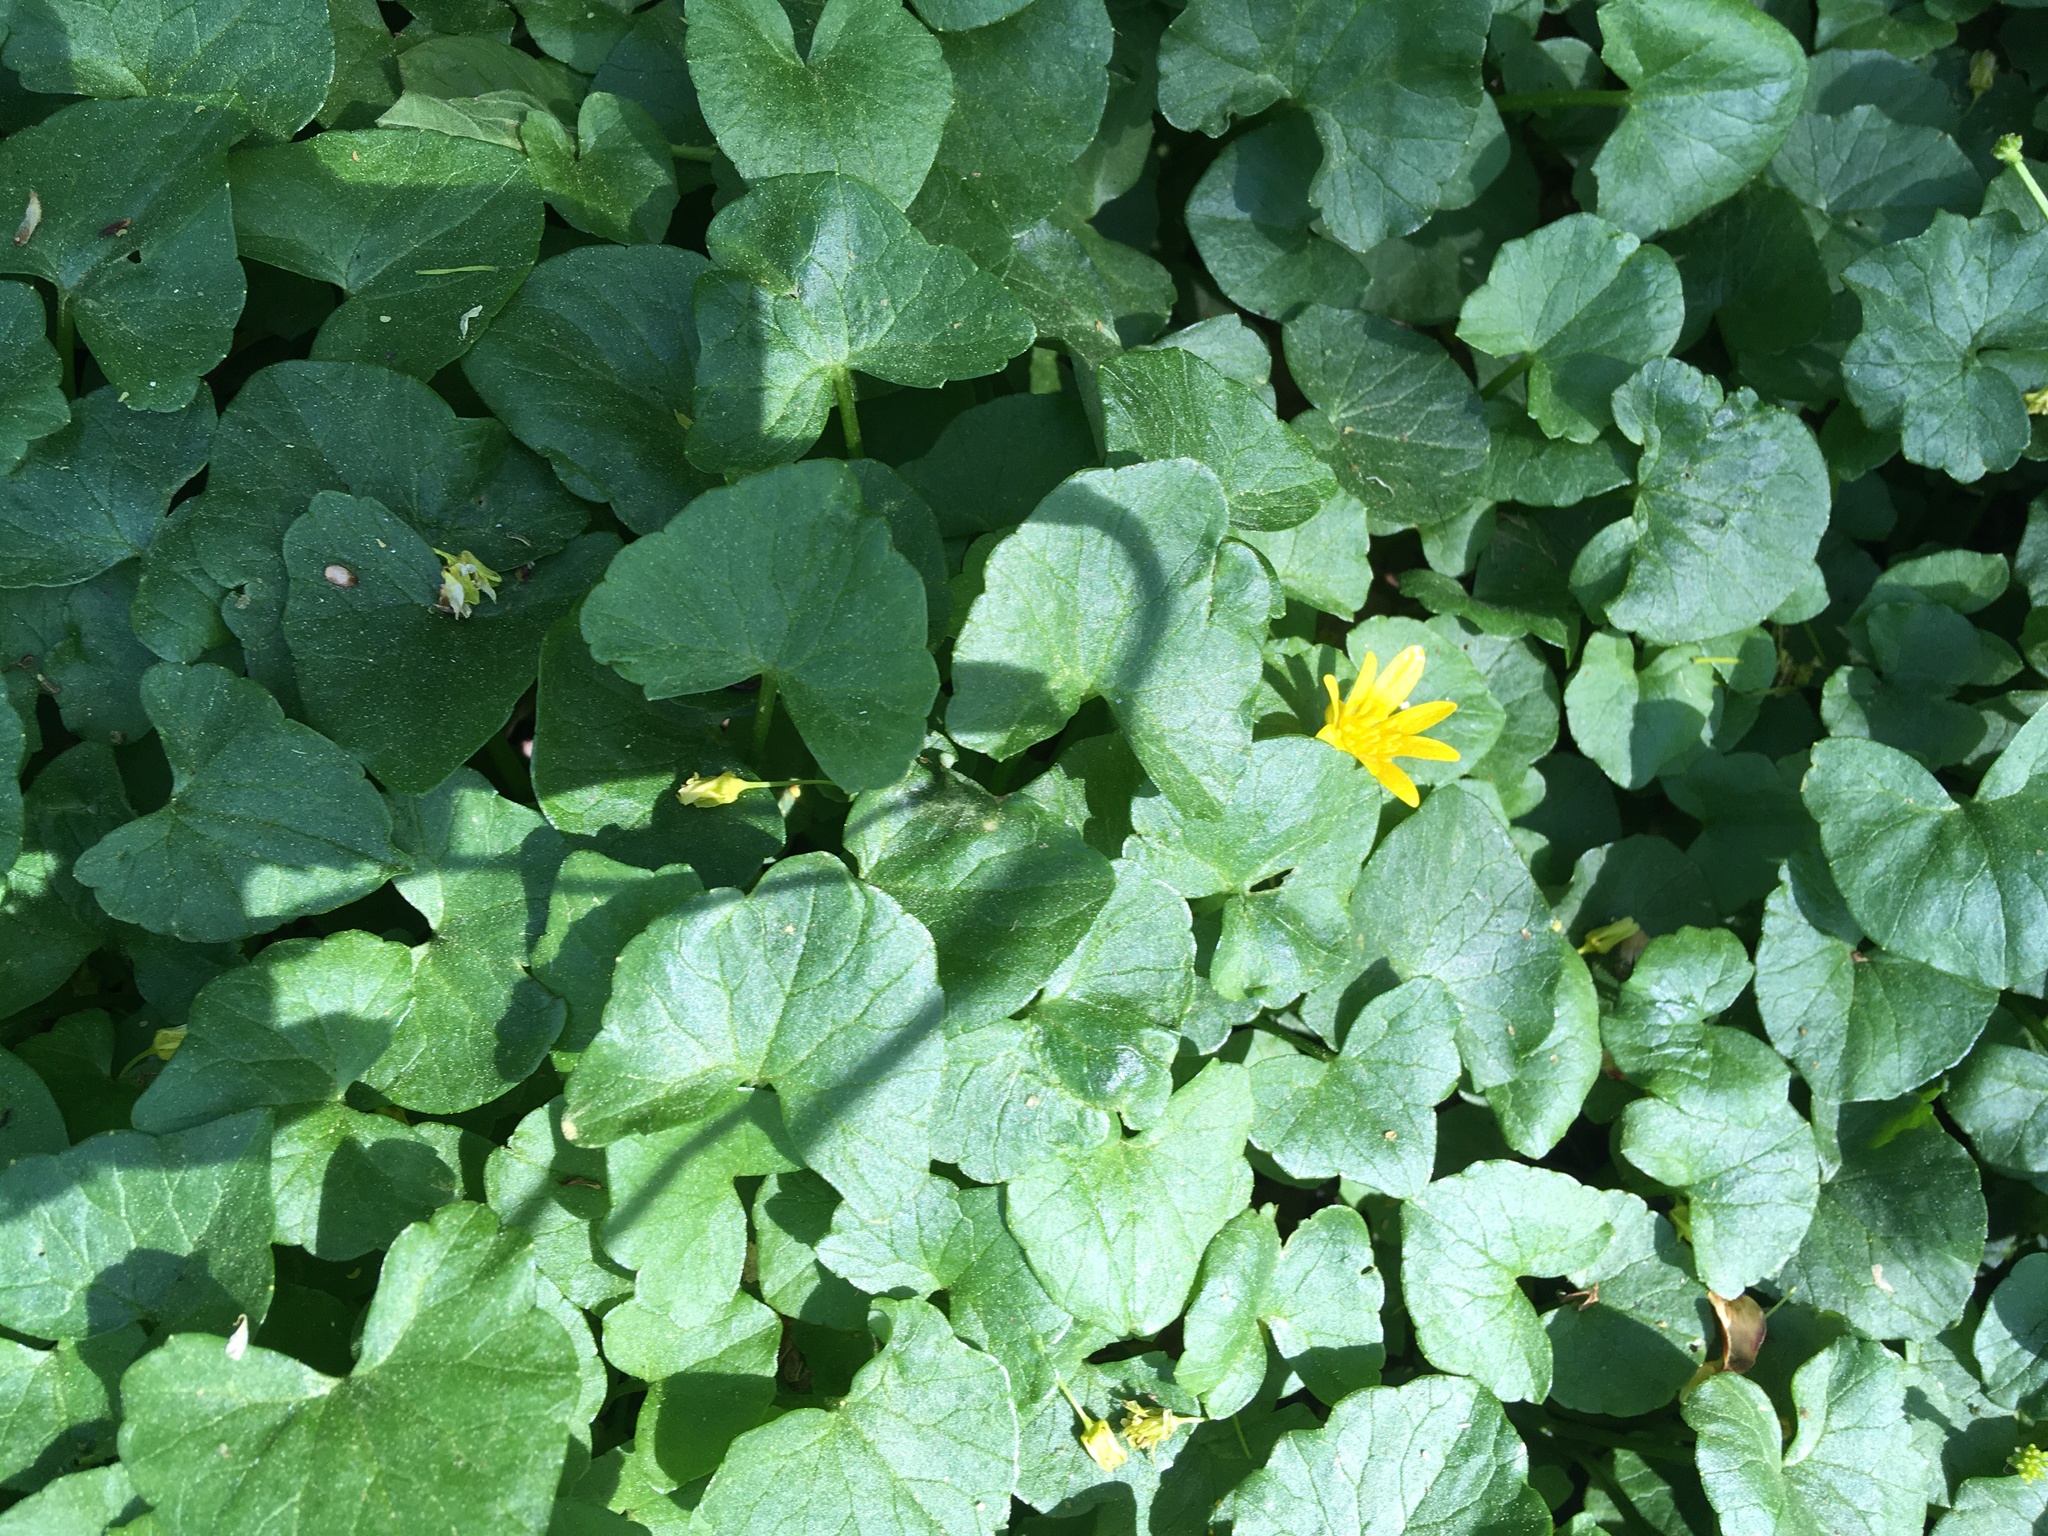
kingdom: Plantae
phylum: Tracheophyta
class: Magnoliopsida
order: Ranunculales
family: Ranunculaceae
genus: Ficaria
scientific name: Ficaria verna
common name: Lesser celandine
